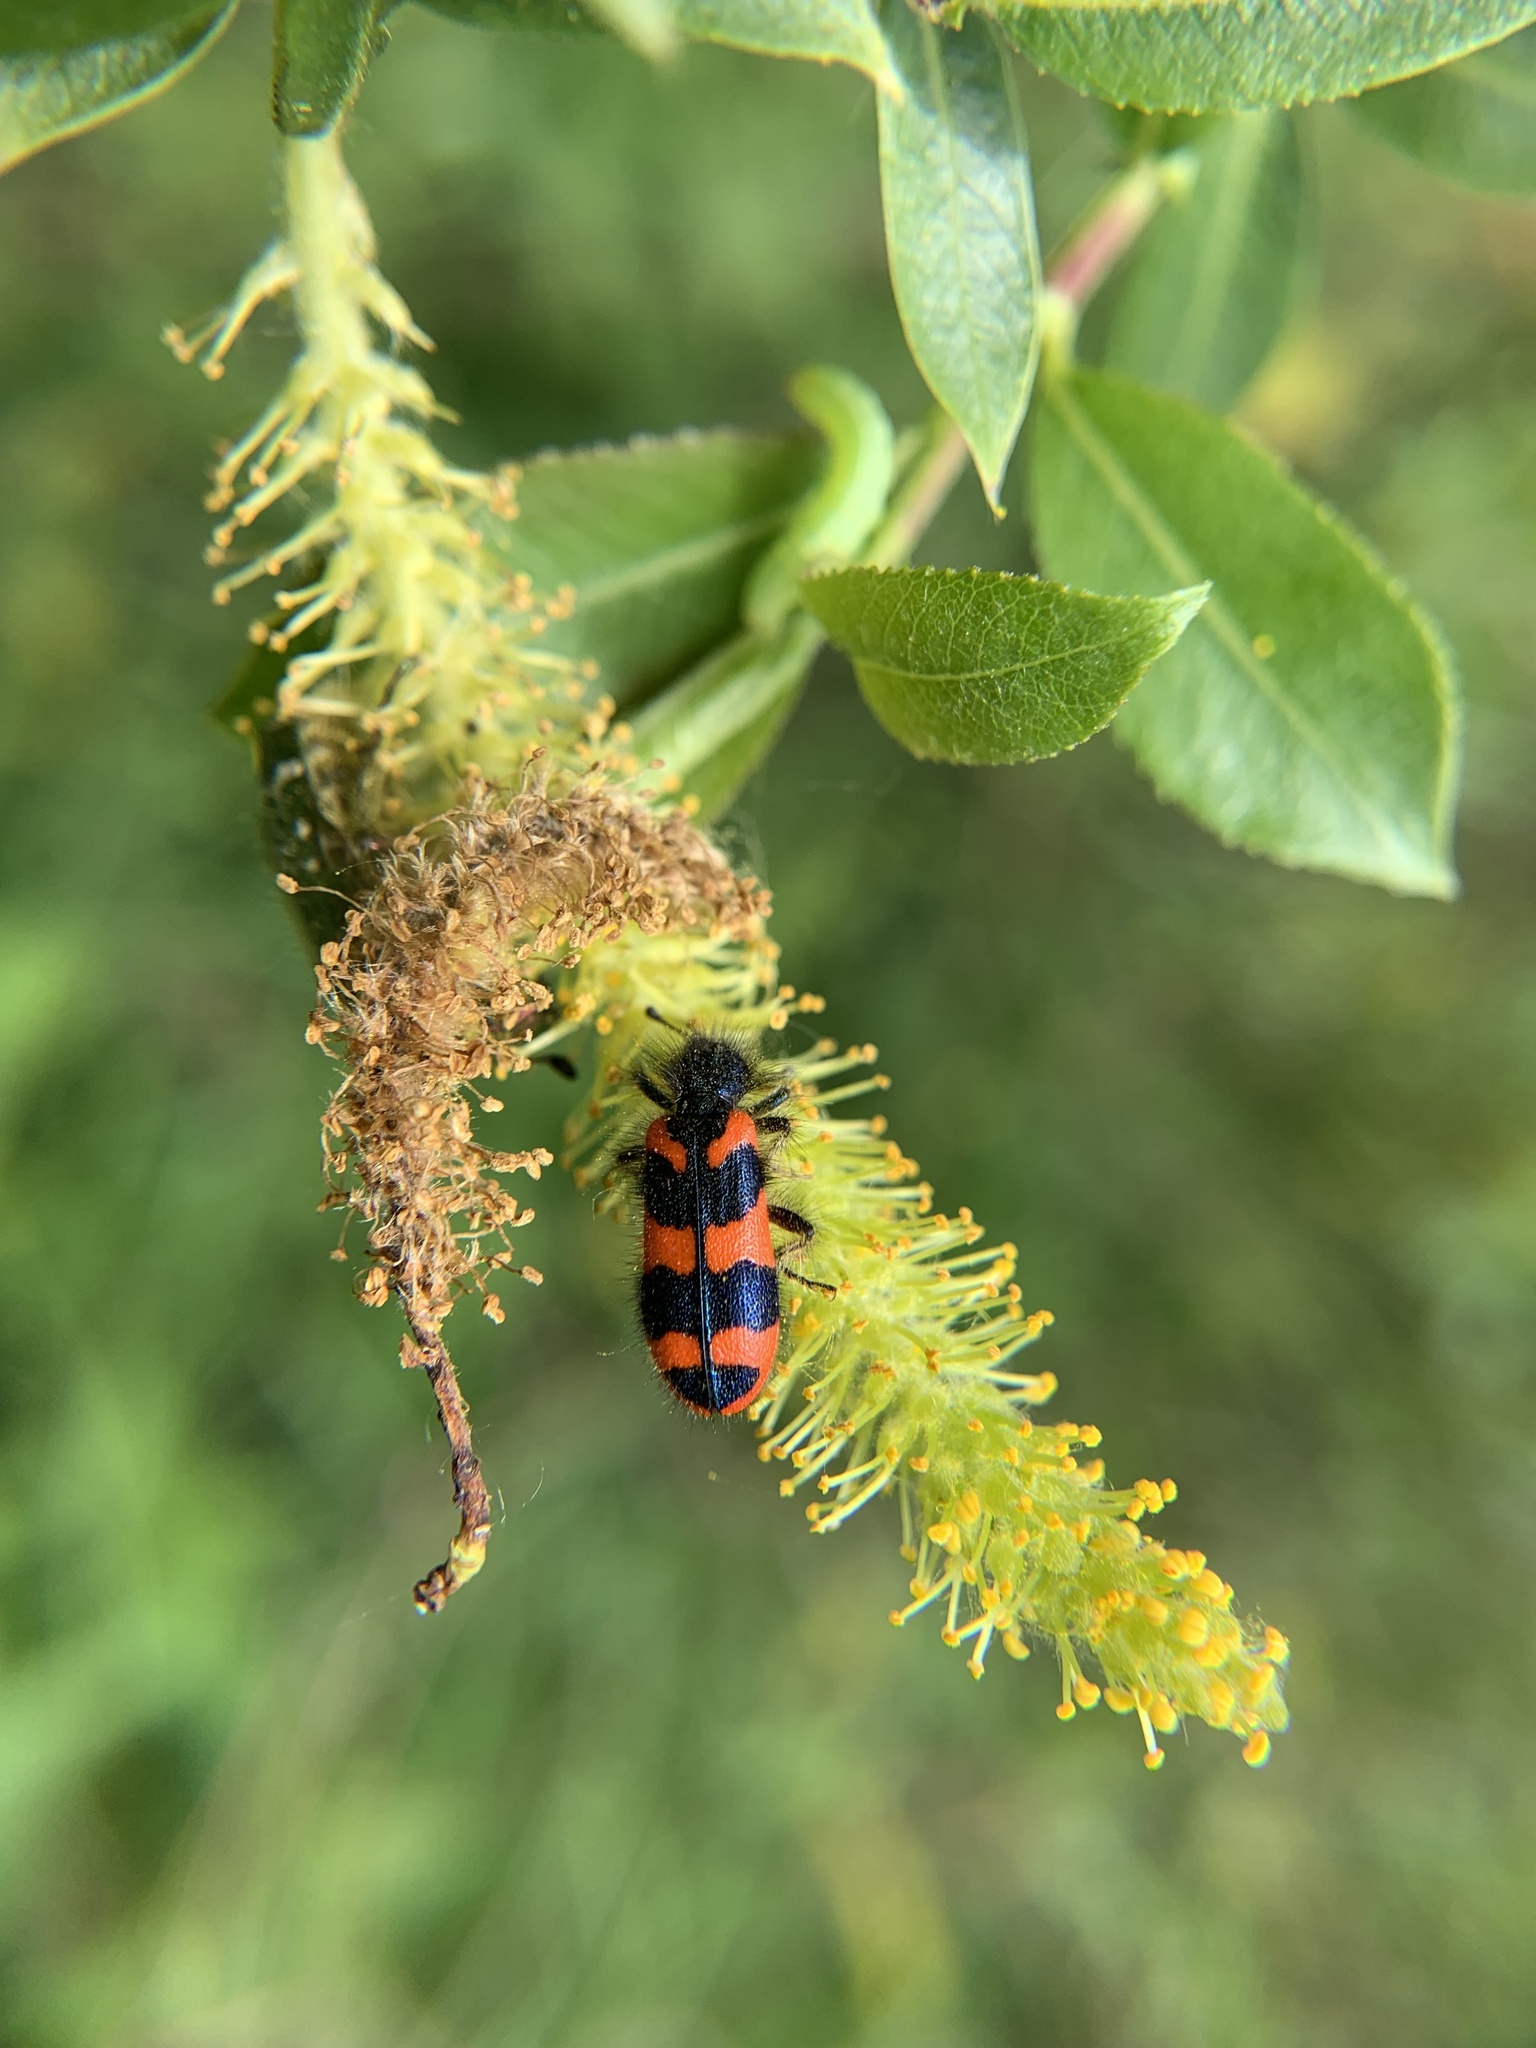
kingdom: Animalia
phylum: Arthropoda
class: Insecta
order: Coleoptera
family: Cleridae
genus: Trichodes
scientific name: Trichodes alvearius
